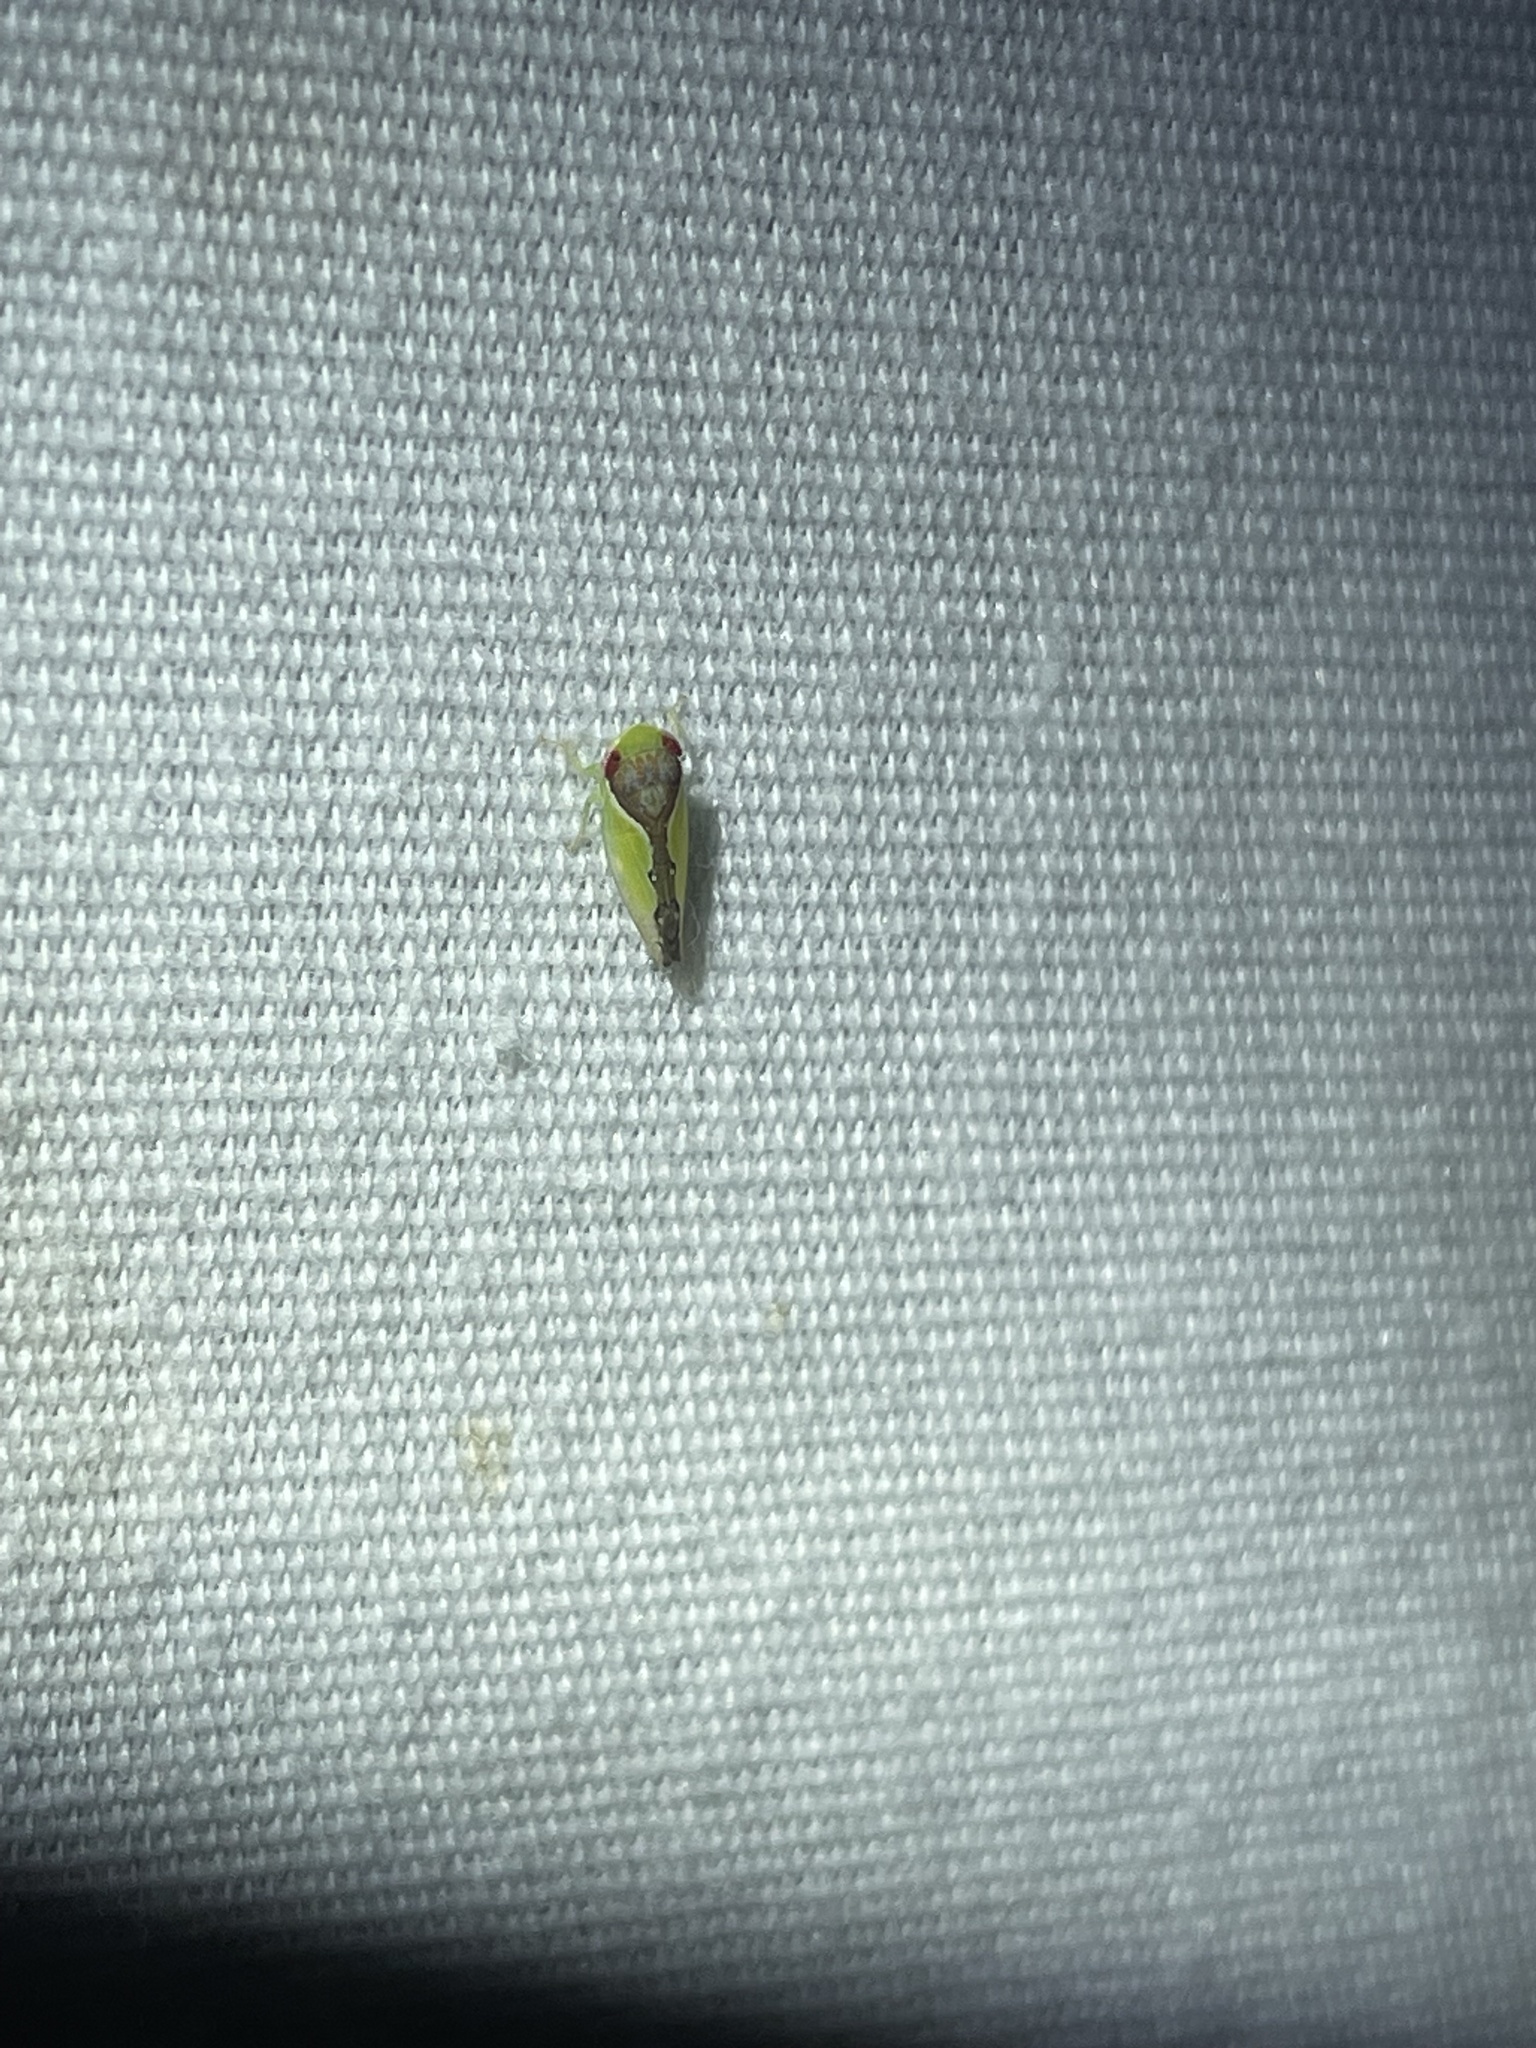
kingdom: Animalia
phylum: Arthropoda
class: Insecta
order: Hemiptera
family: Cicadellidae
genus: Omansobara ing
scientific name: Omansobara ing Omansobara palliolata
